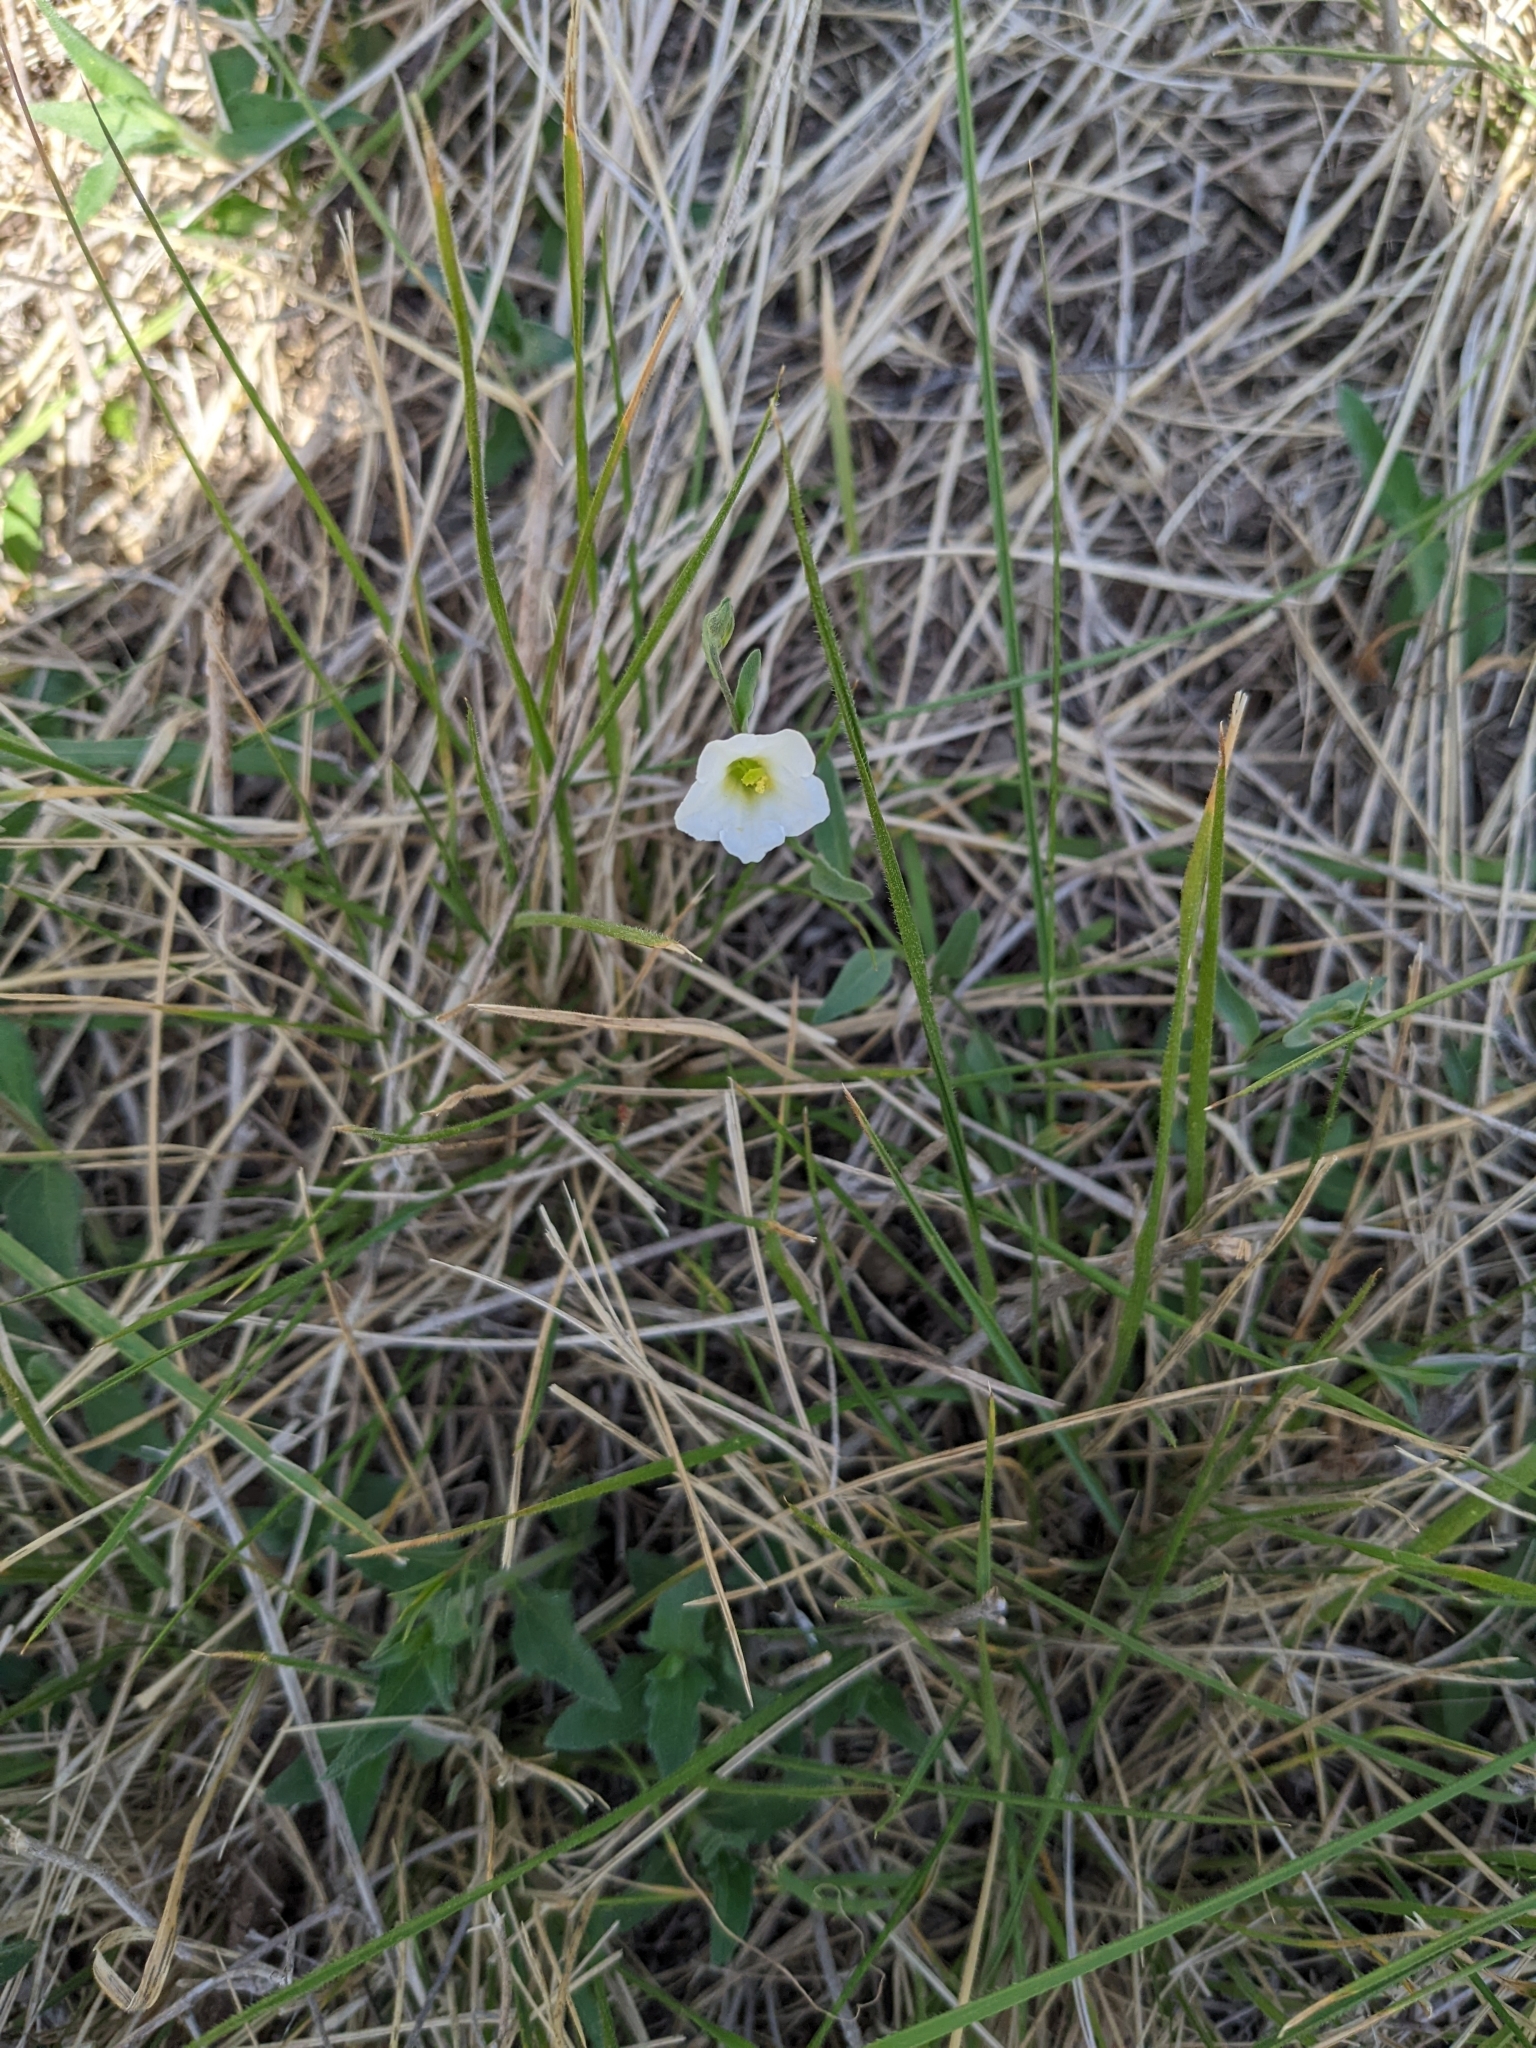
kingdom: Plantae
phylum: Tracheophyta
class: Magnoliopsida
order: Solanales
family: Solanaceae
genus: Salpiglossis
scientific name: Salpiglossis erecta
